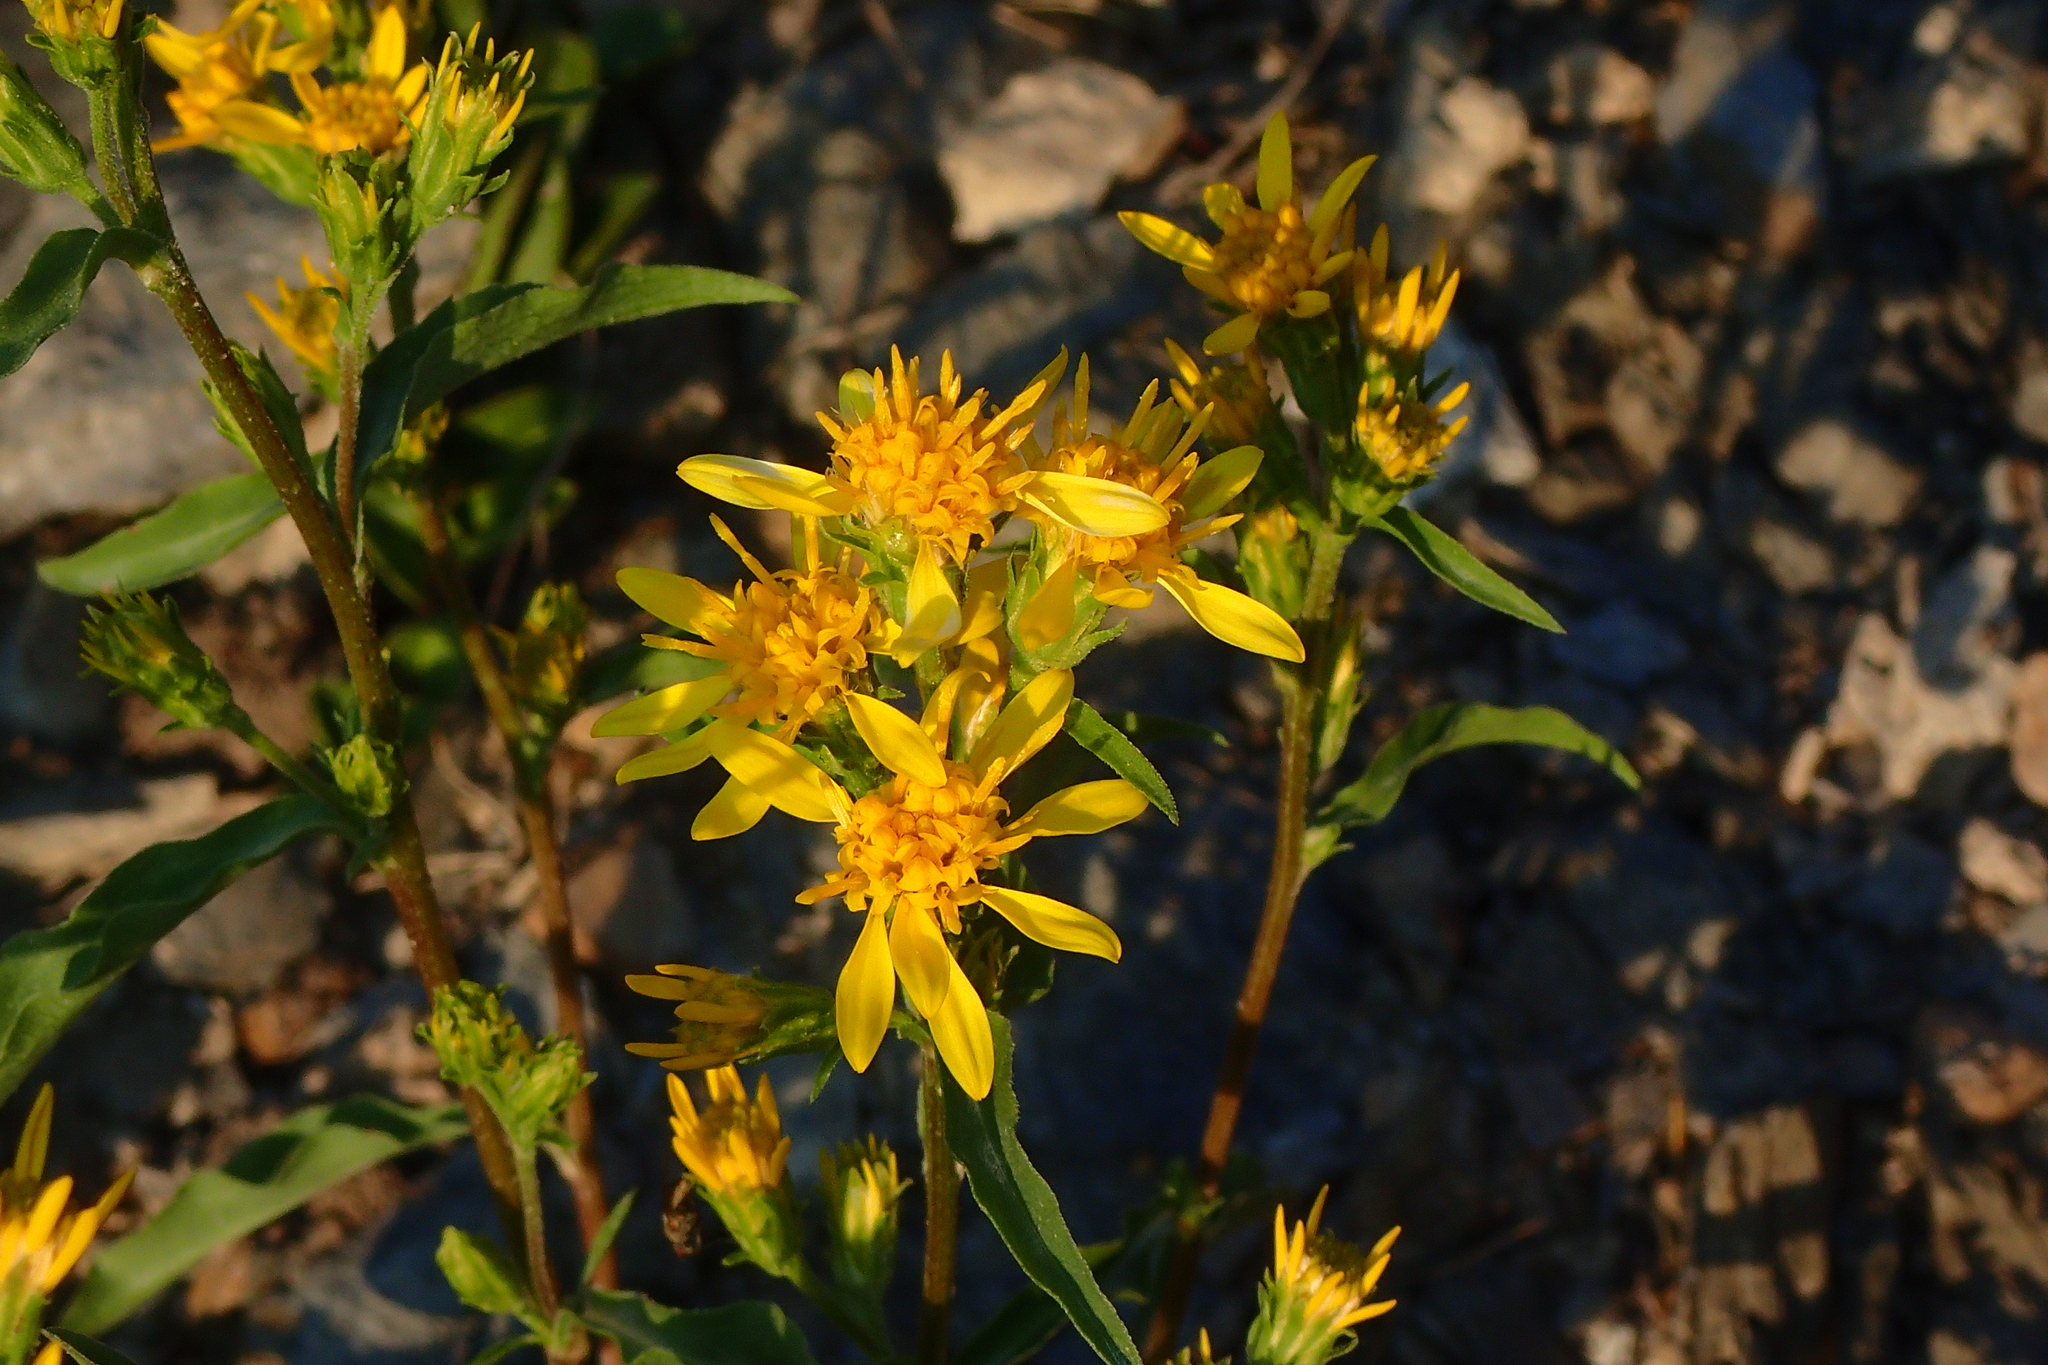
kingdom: Plantae
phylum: Tracheophyta
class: Magnoliopsida
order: Asterales
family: Asteraceae
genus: Solidago
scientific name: Solidago virgaurea
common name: Goldenrod
